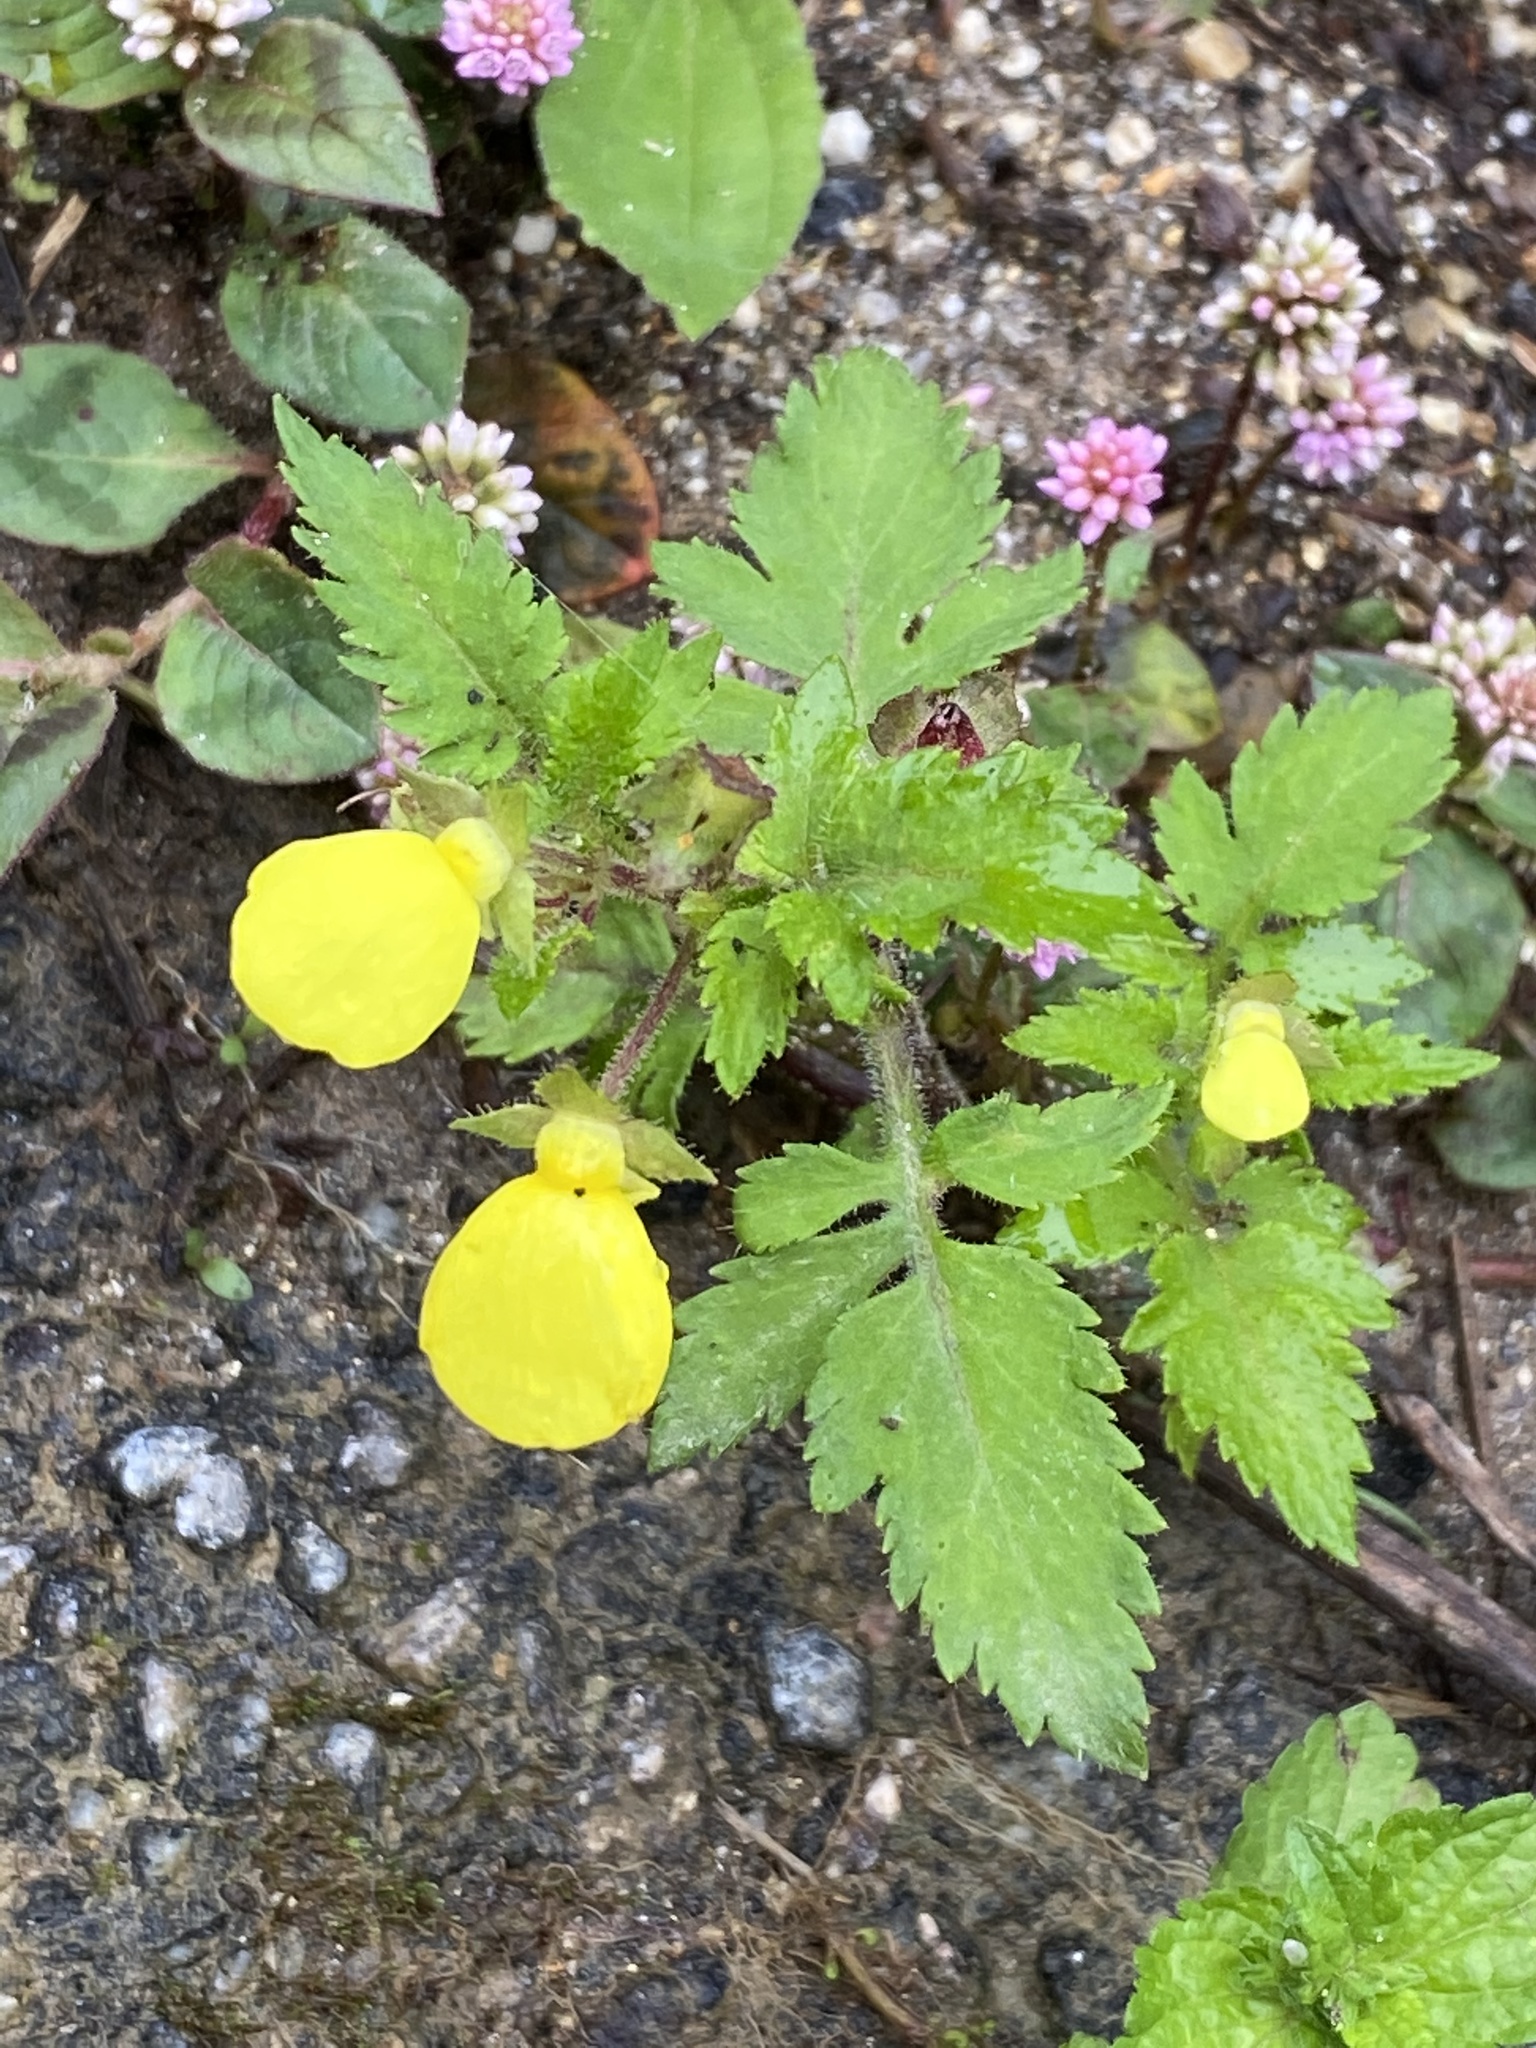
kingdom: Plantae
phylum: Tracheophyta
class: Magnoliopsida
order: Lamiales
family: Calceolariaceae
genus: Calceolaria
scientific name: Calceolaria tripartita
